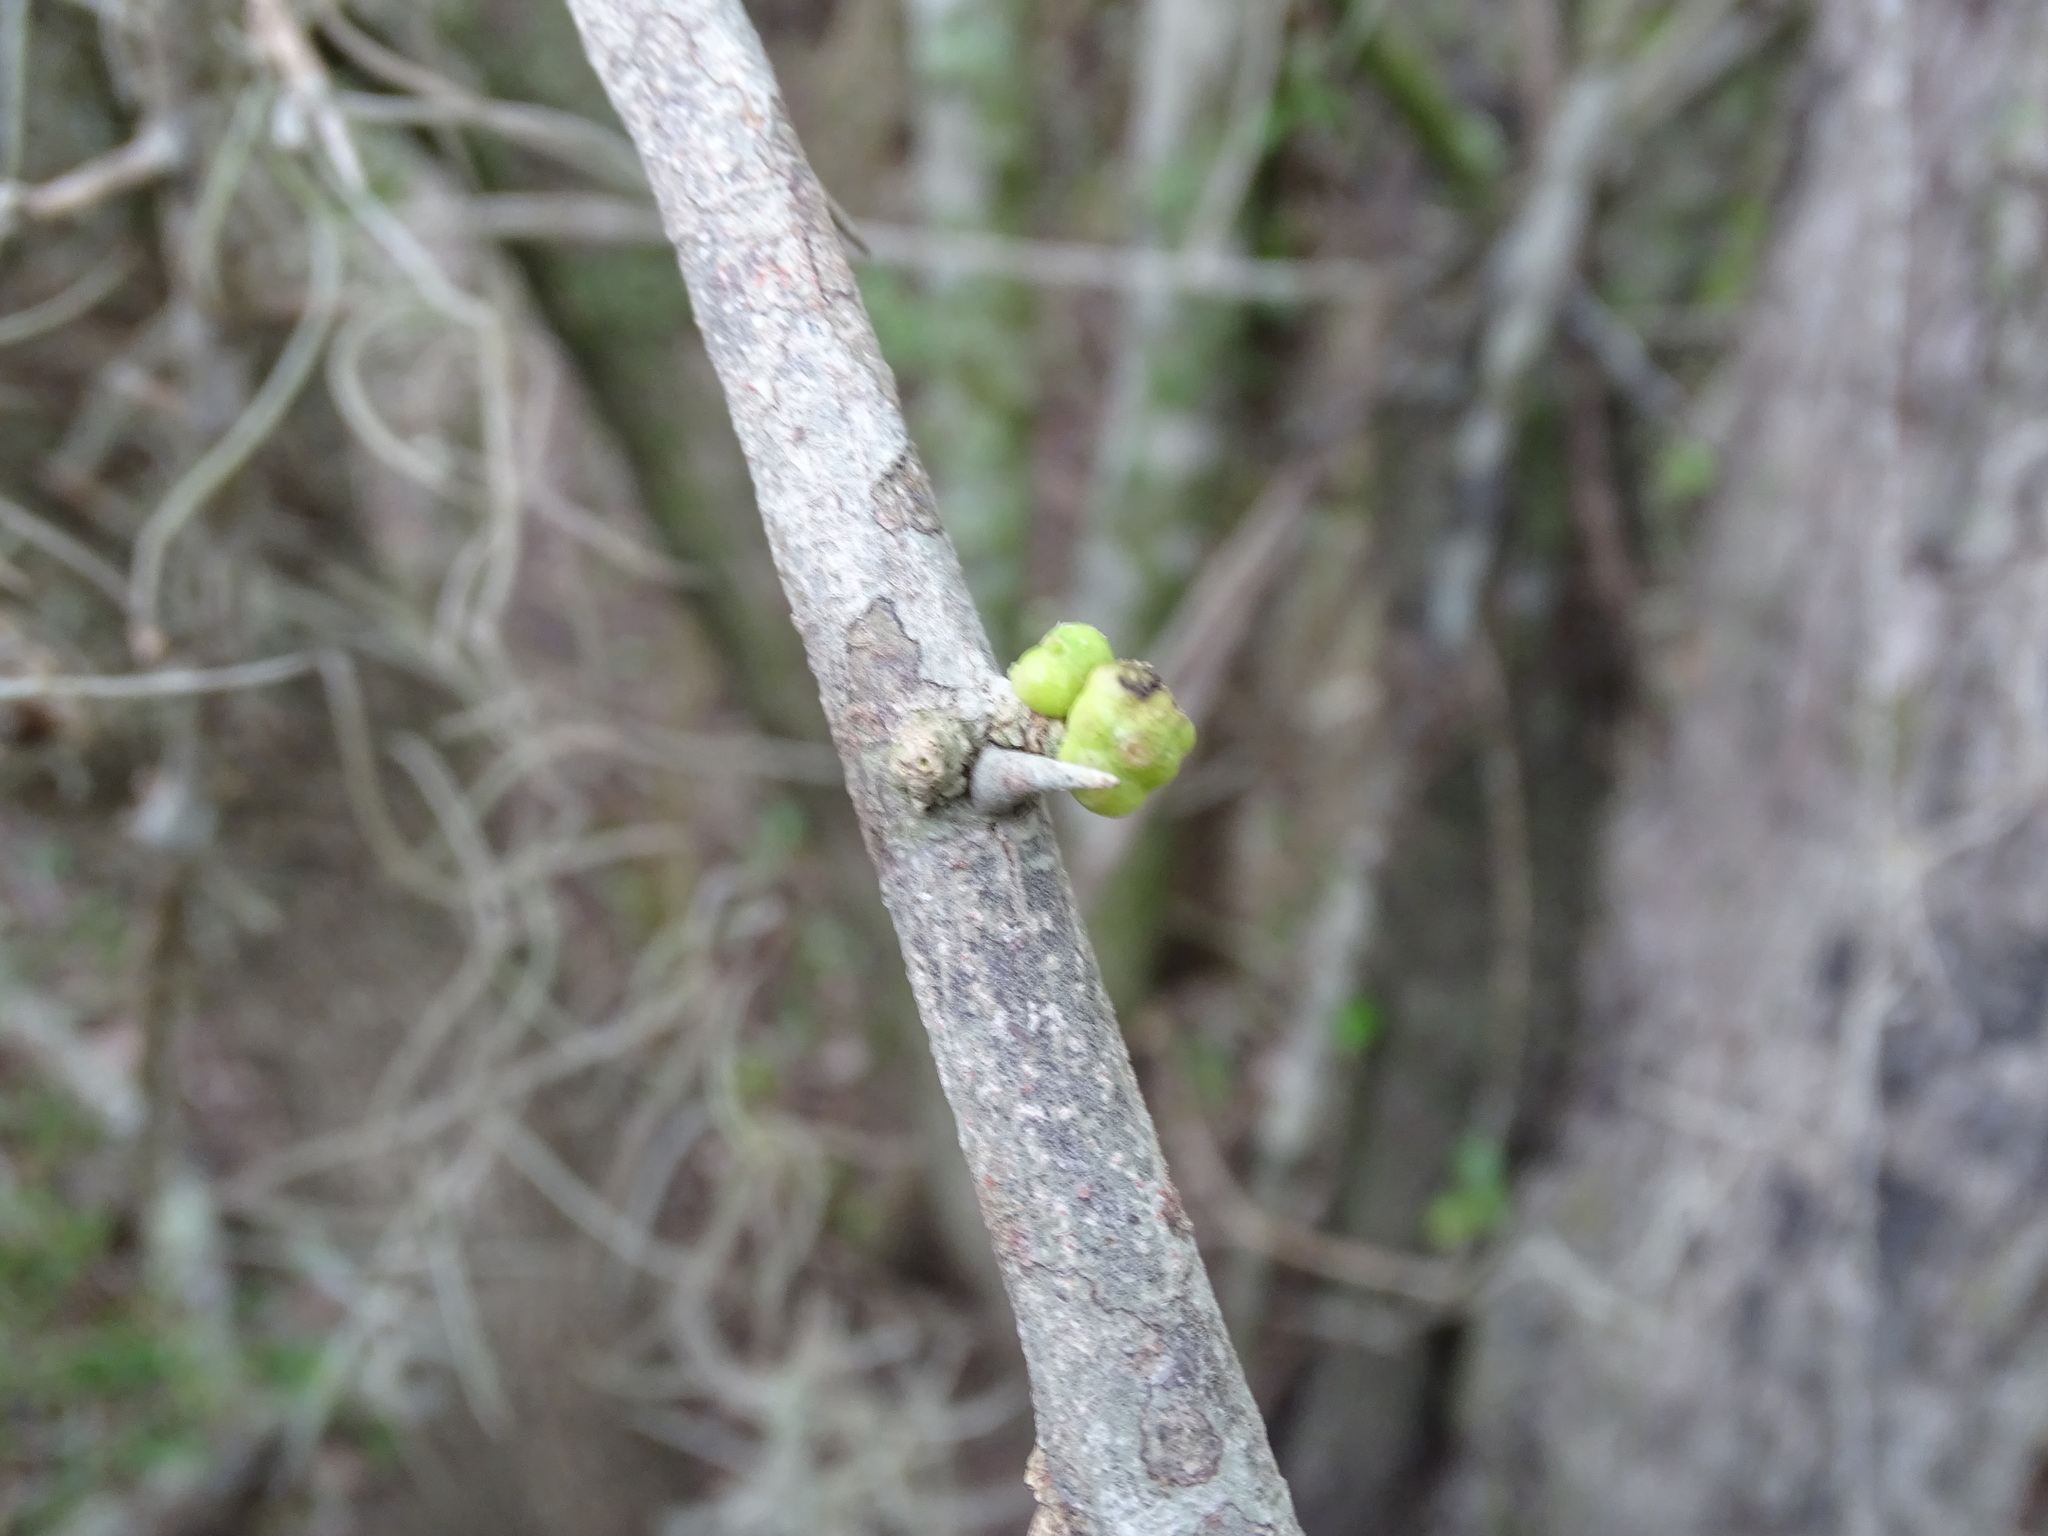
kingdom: Plantae
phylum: Tracheophyta
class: Magnoliopsida
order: Ericales
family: Sapotaceae
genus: Sideroxylon
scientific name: Sideroxylon palmeri
